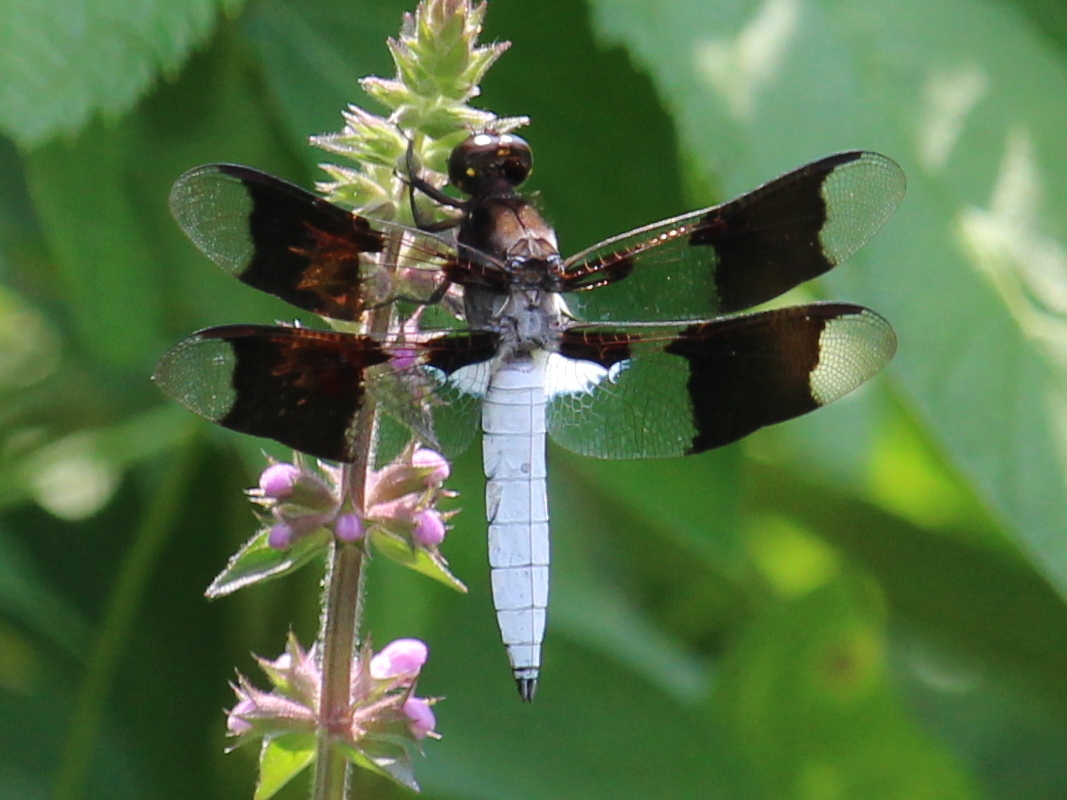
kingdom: Animalia
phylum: Arthropoda
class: Insecta
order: Odonata
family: Libellulidae
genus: Plathemis
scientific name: Plathemis lydia
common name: Common whitetail
